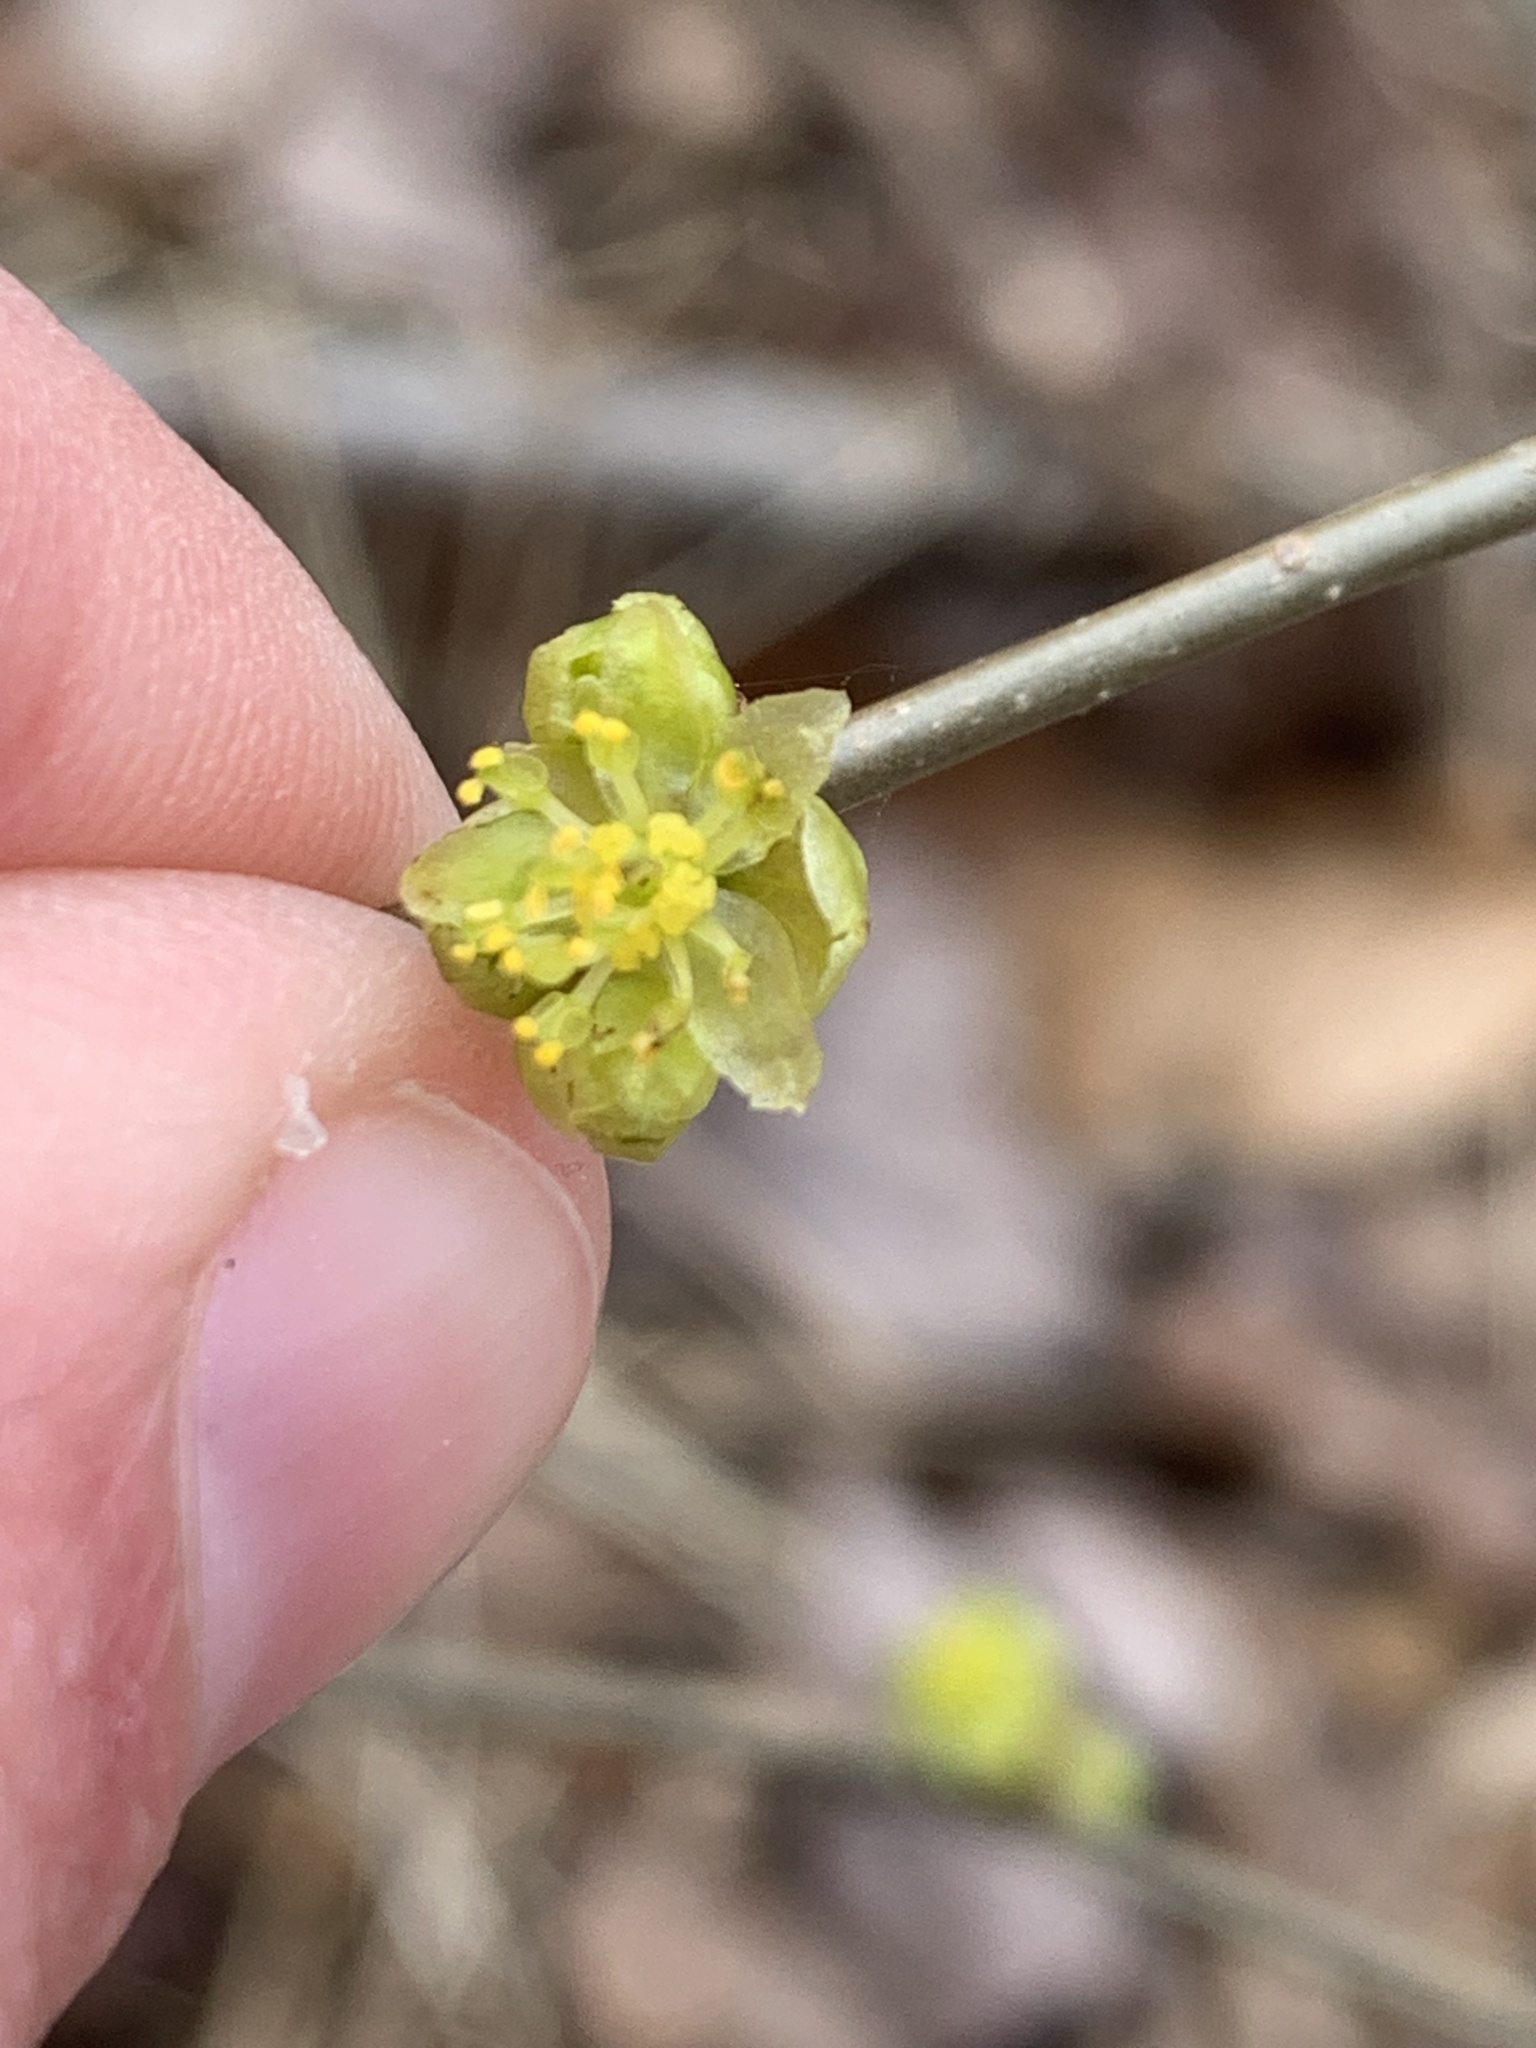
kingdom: Plantae
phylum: Tracheophyta
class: Magnoliopsida
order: Laurales
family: Lauraceae
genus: Lindera
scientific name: Lindera benzoin
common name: Spicebush
